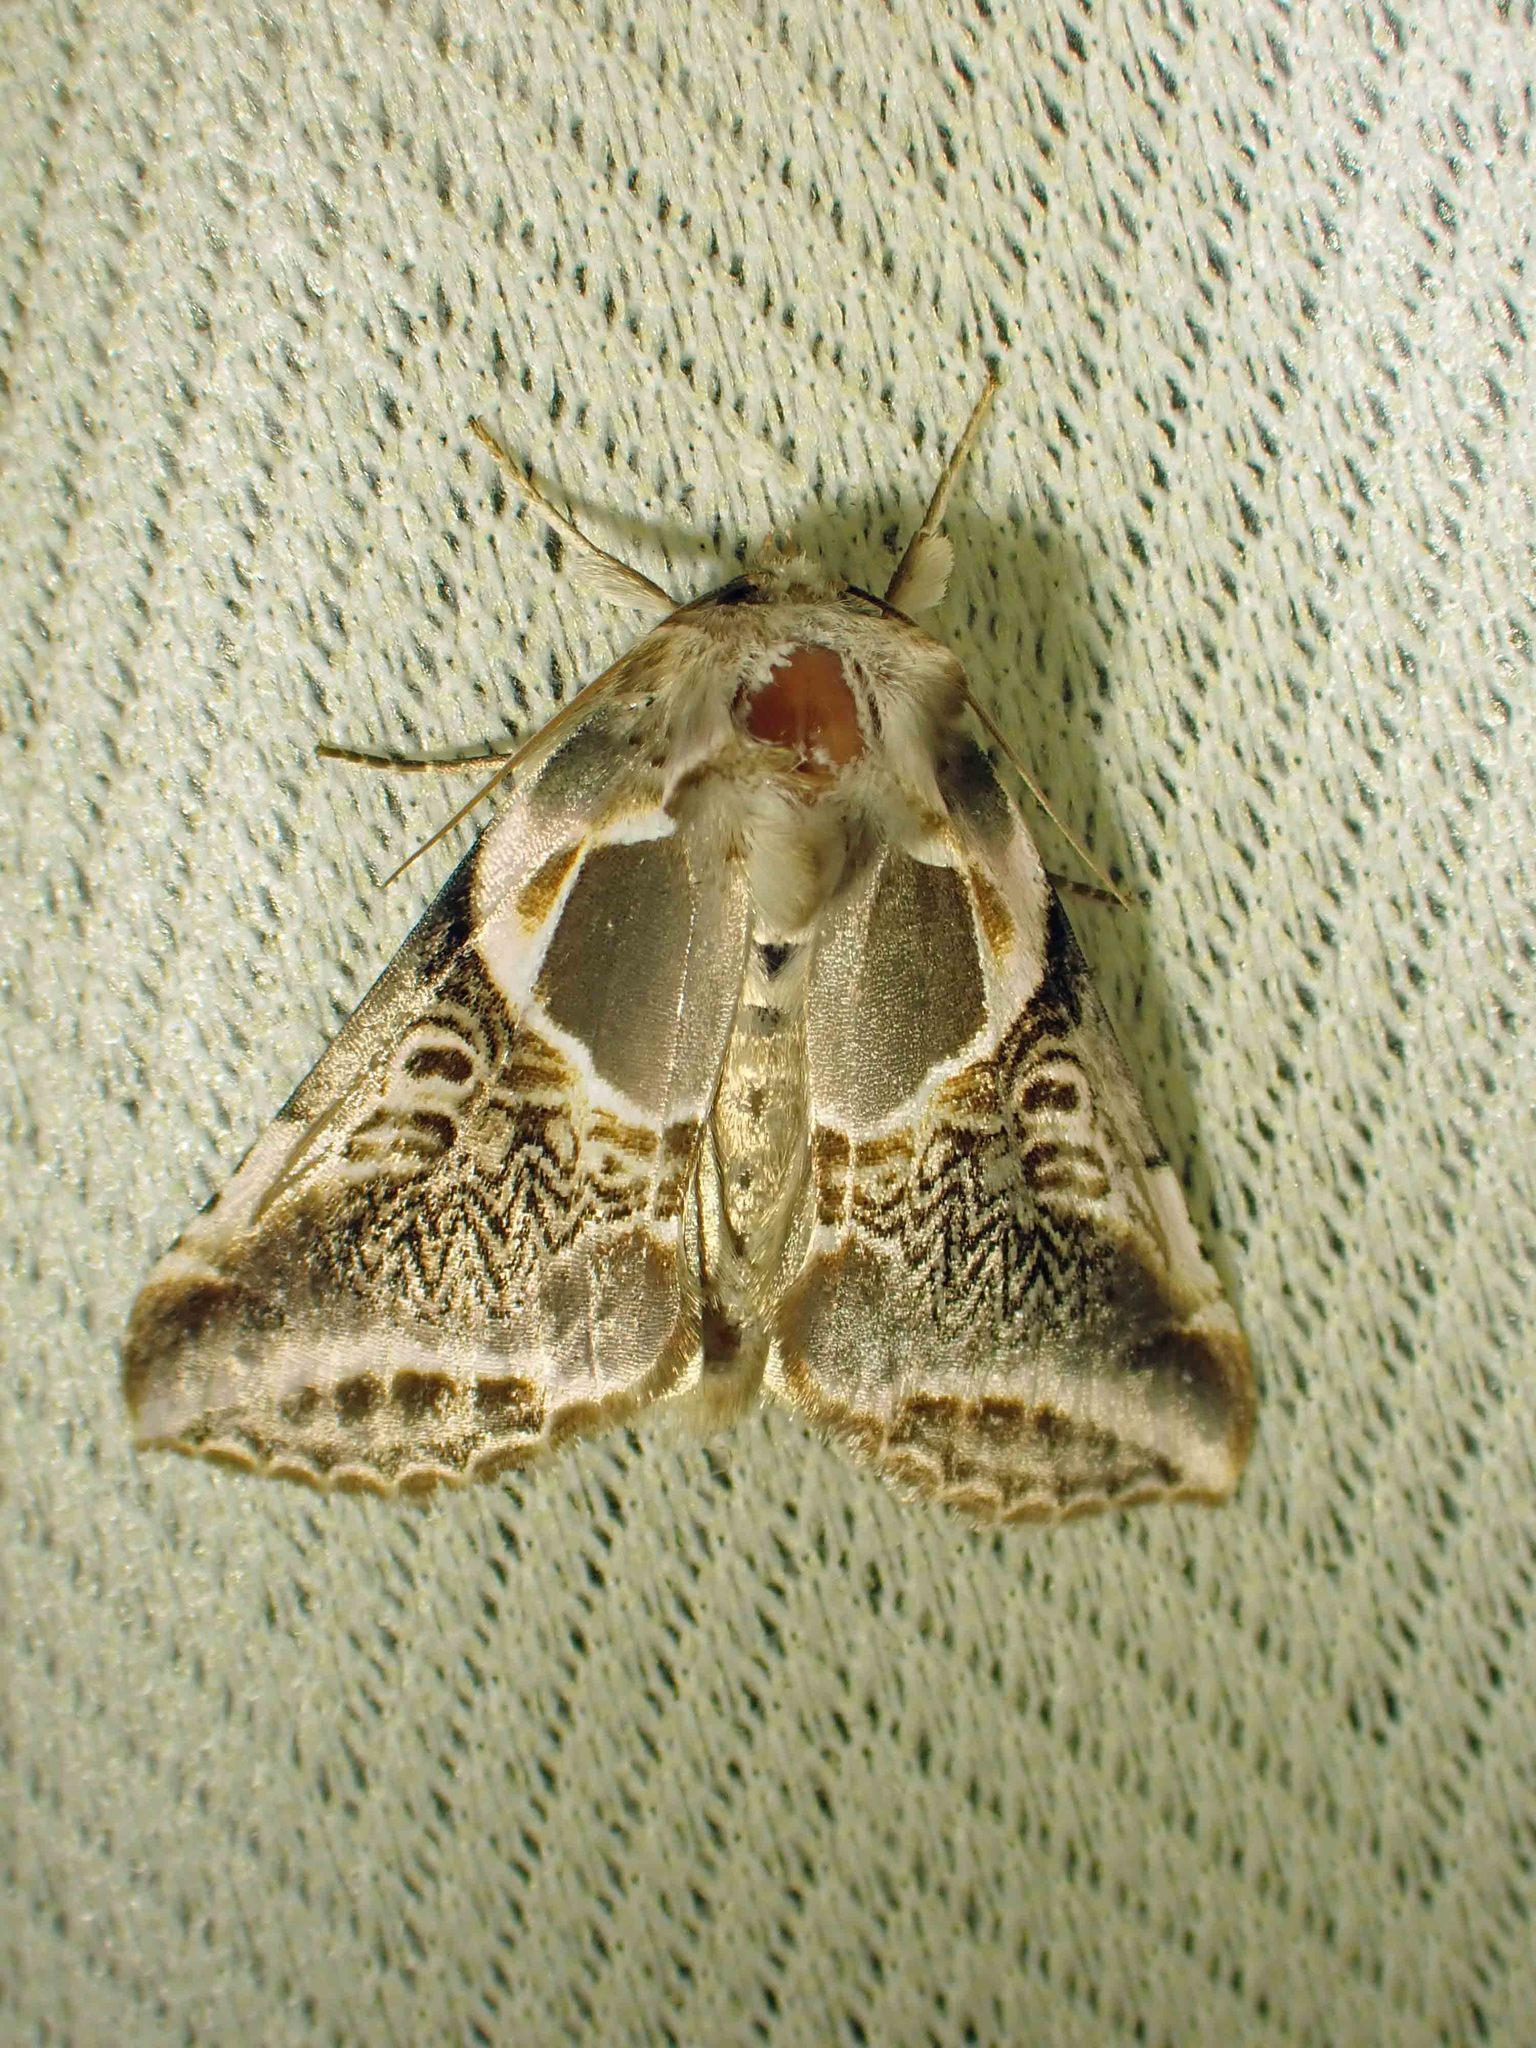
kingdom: Animalia
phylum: Arthropoda
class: Insecta
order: Lepidoptera
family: Drepanidae
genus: Habrosyne
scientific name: Habrosyne scripta
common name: Lettered habrosyne moth
